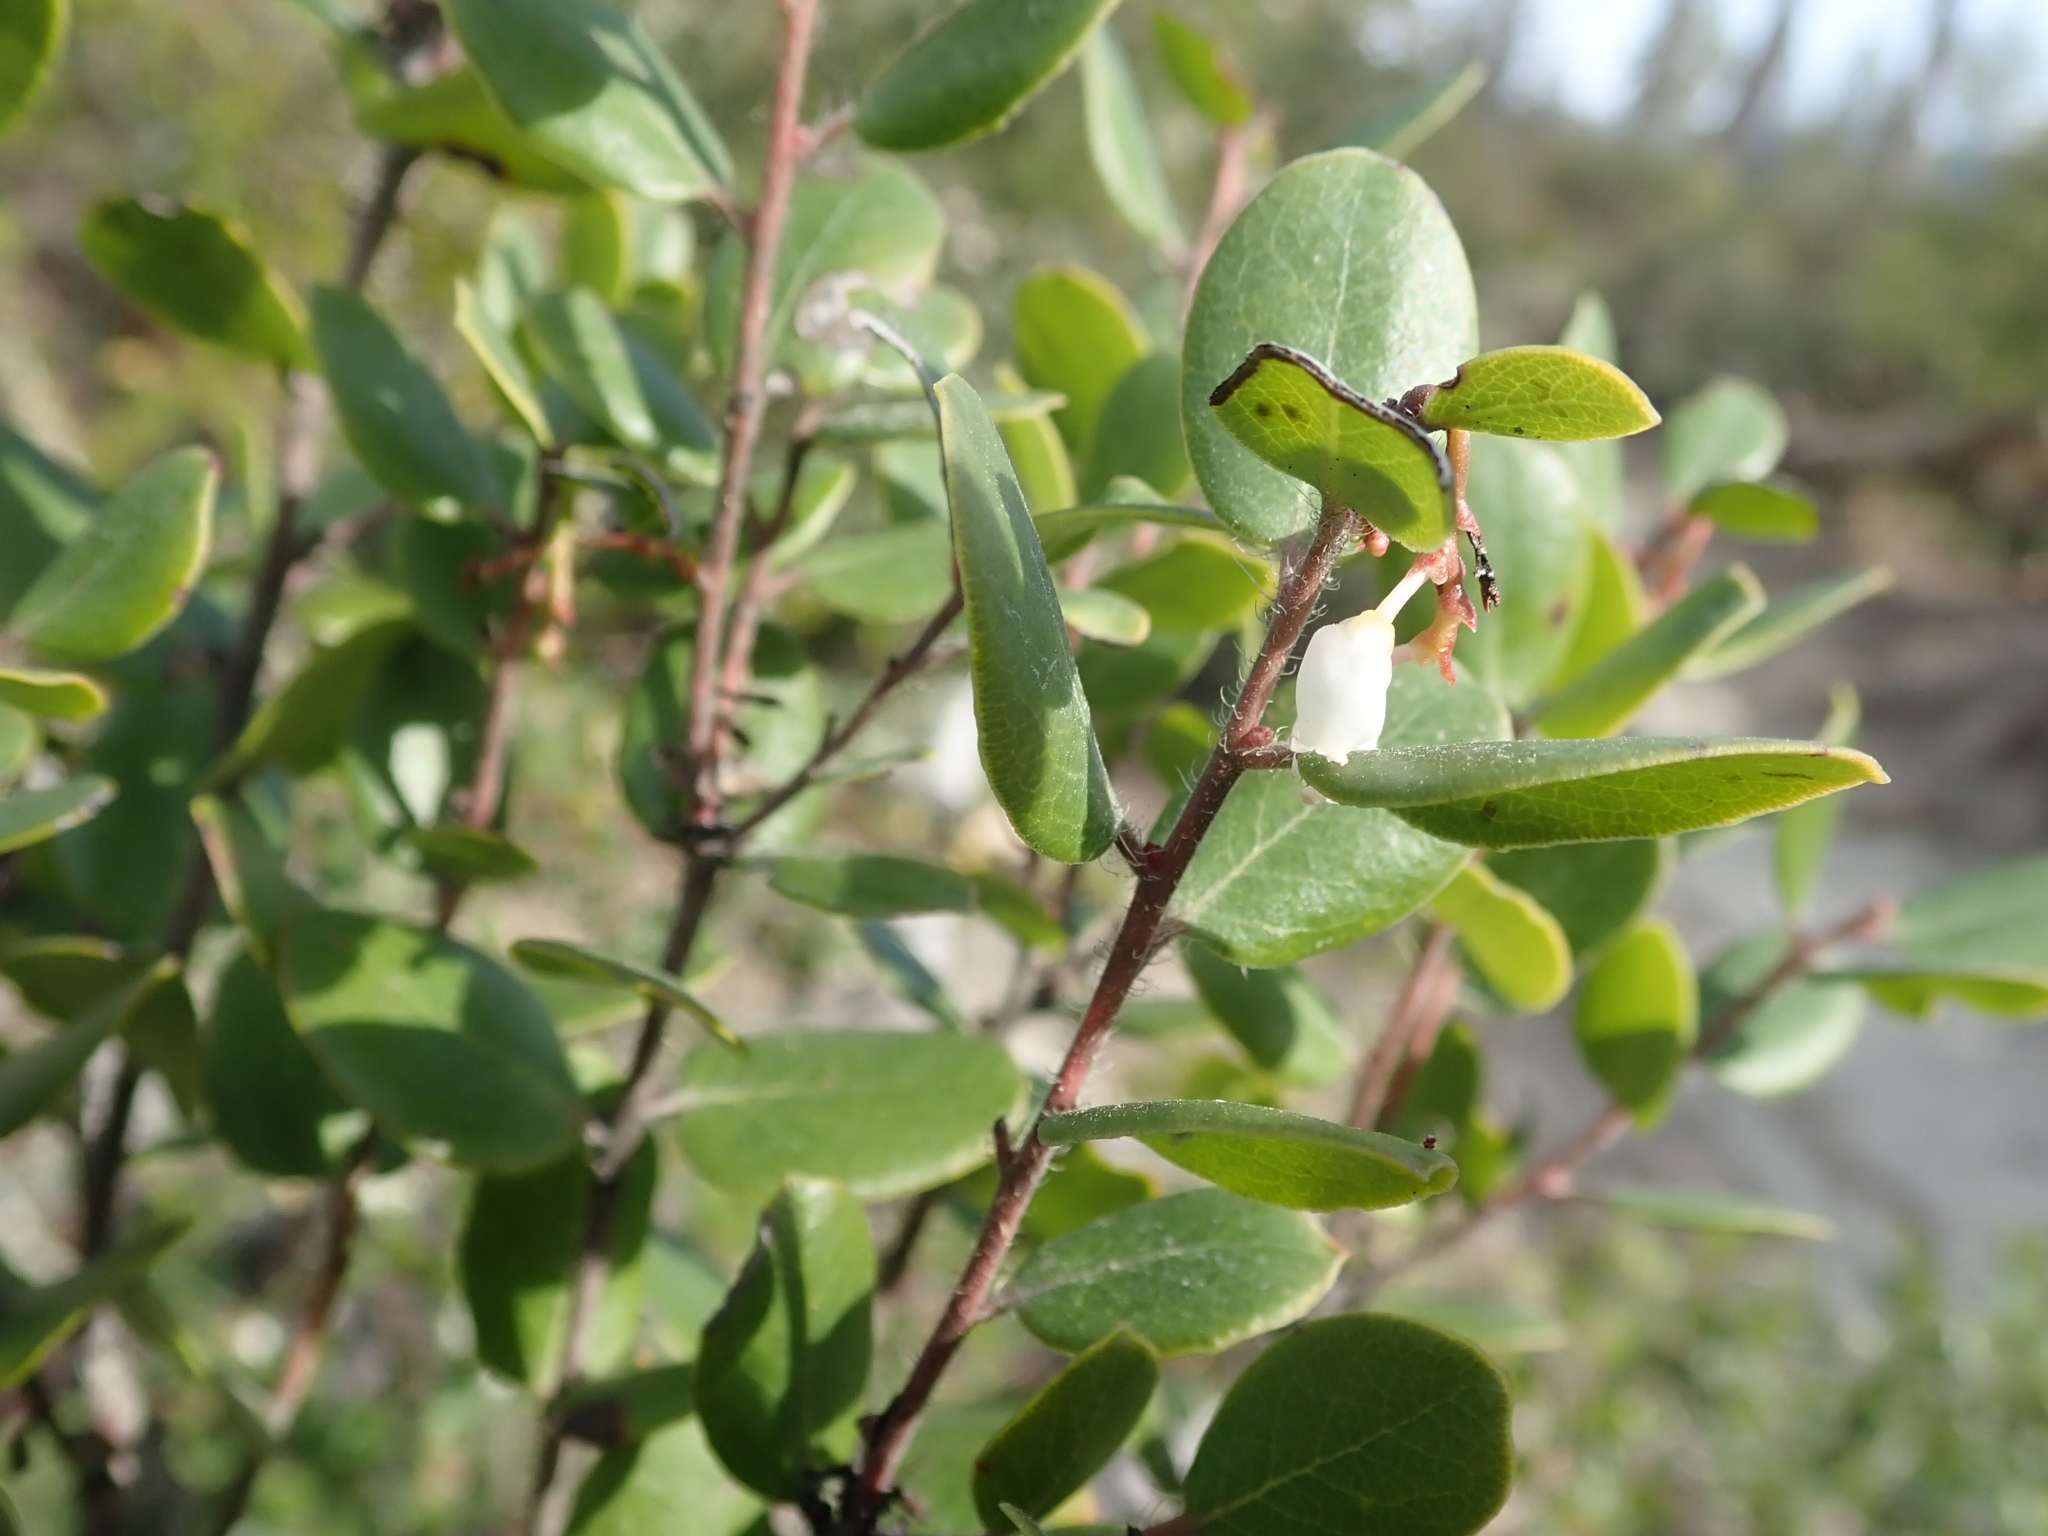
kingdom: Plantae
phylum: Tracheophyta
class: Magnoliopsida
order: Ericales
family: Ericaceae
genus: Arctostaphylos
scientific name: Arctostaphylos nummularia
